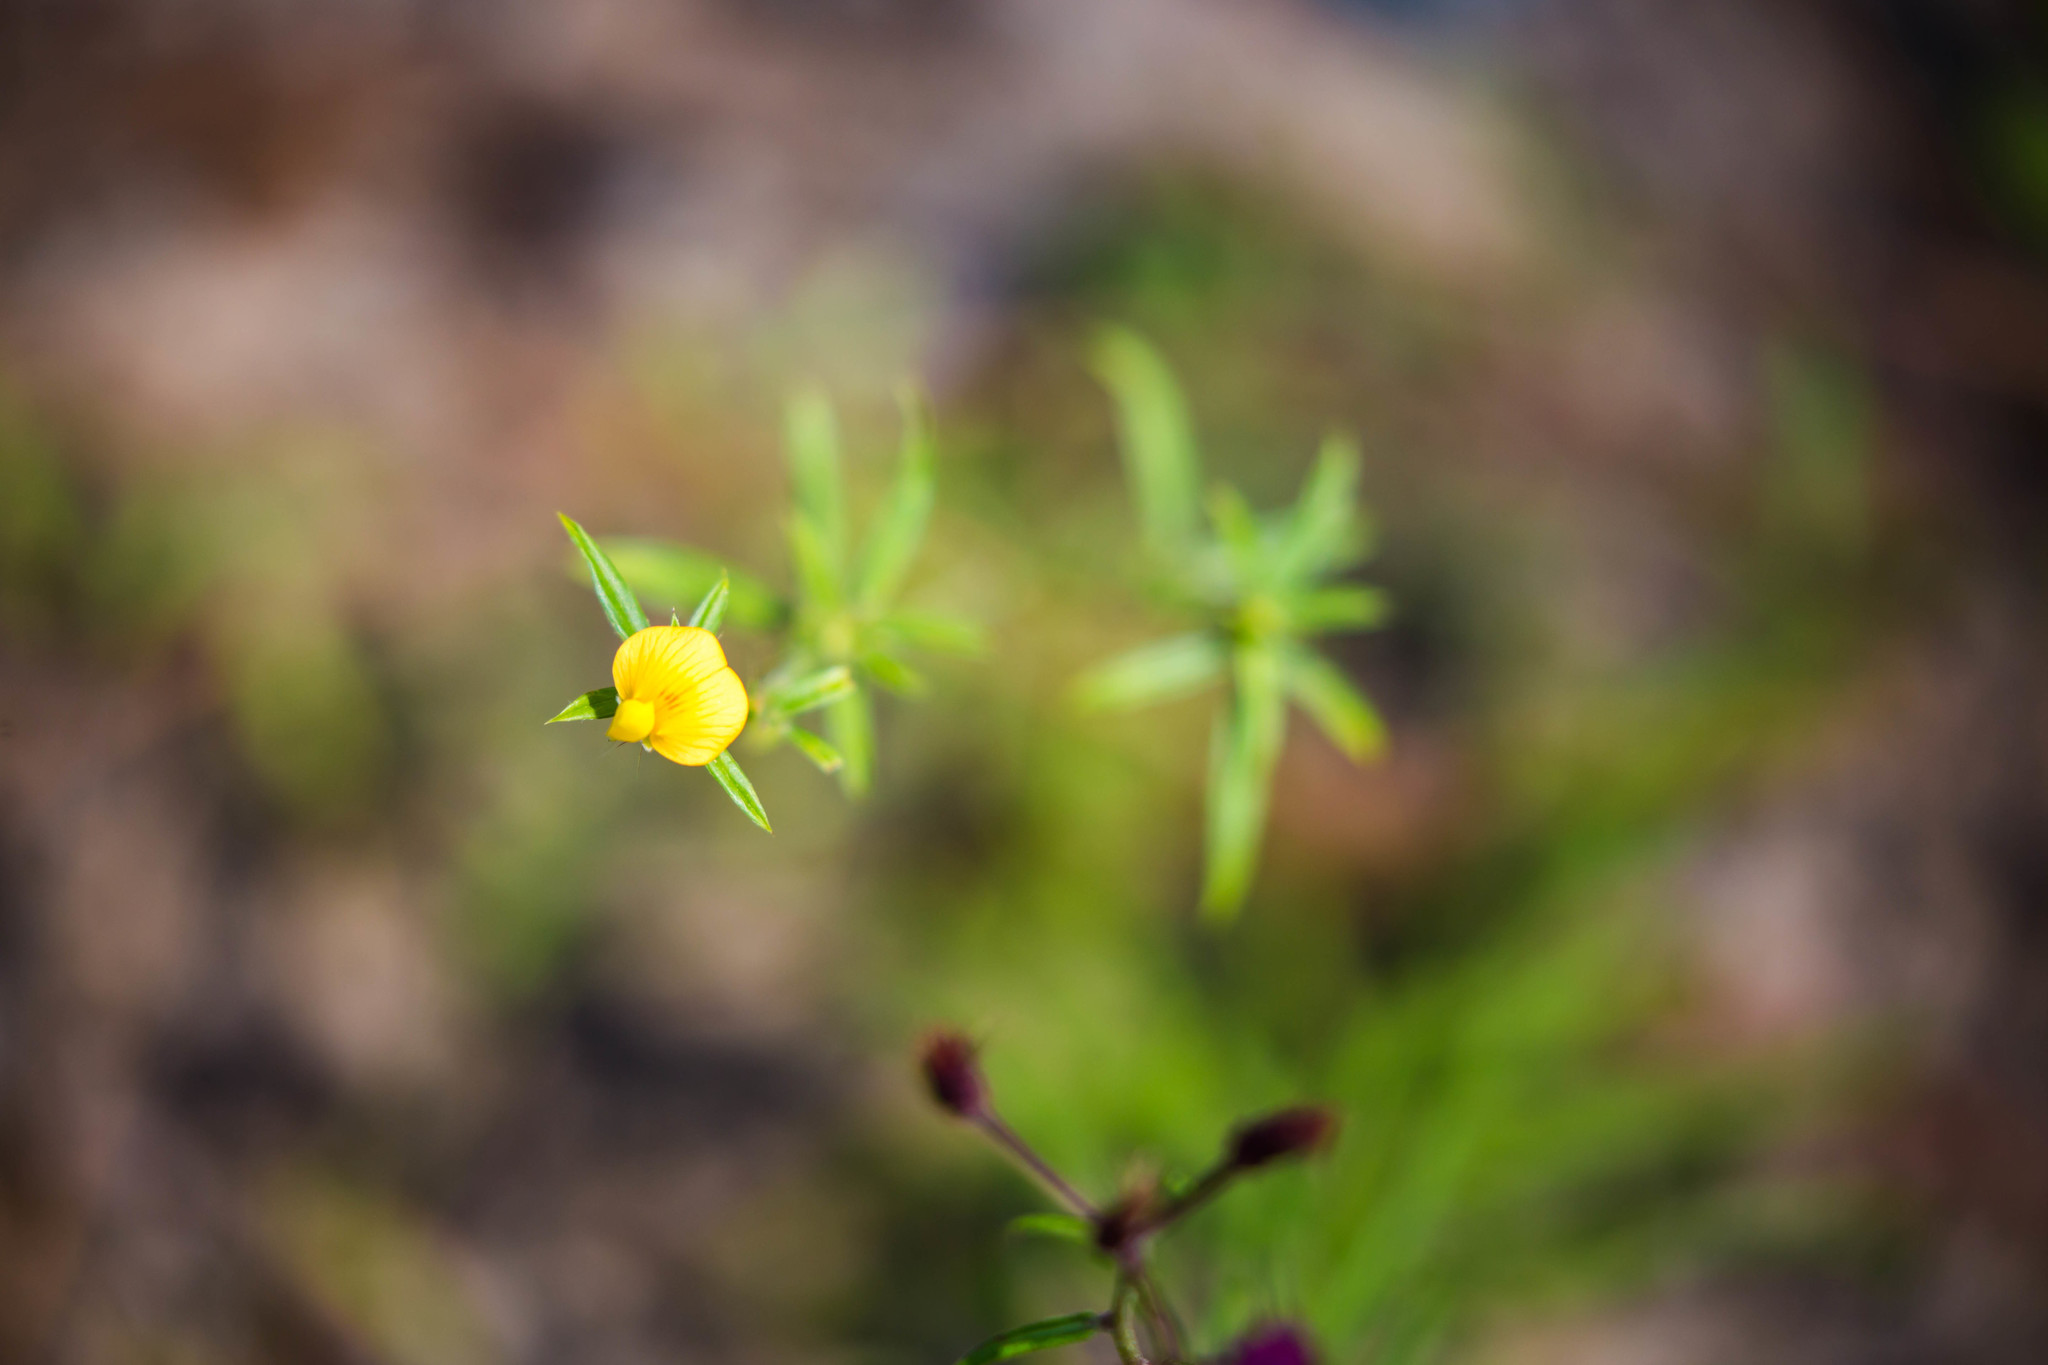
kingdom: Plantae
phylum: Tracheophyta
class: Magnoliopsida
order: Fabales
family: Fabaceae
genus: Stylosanthes
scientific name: Stylosanthes biflora
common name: Two-flower pencil-flower
